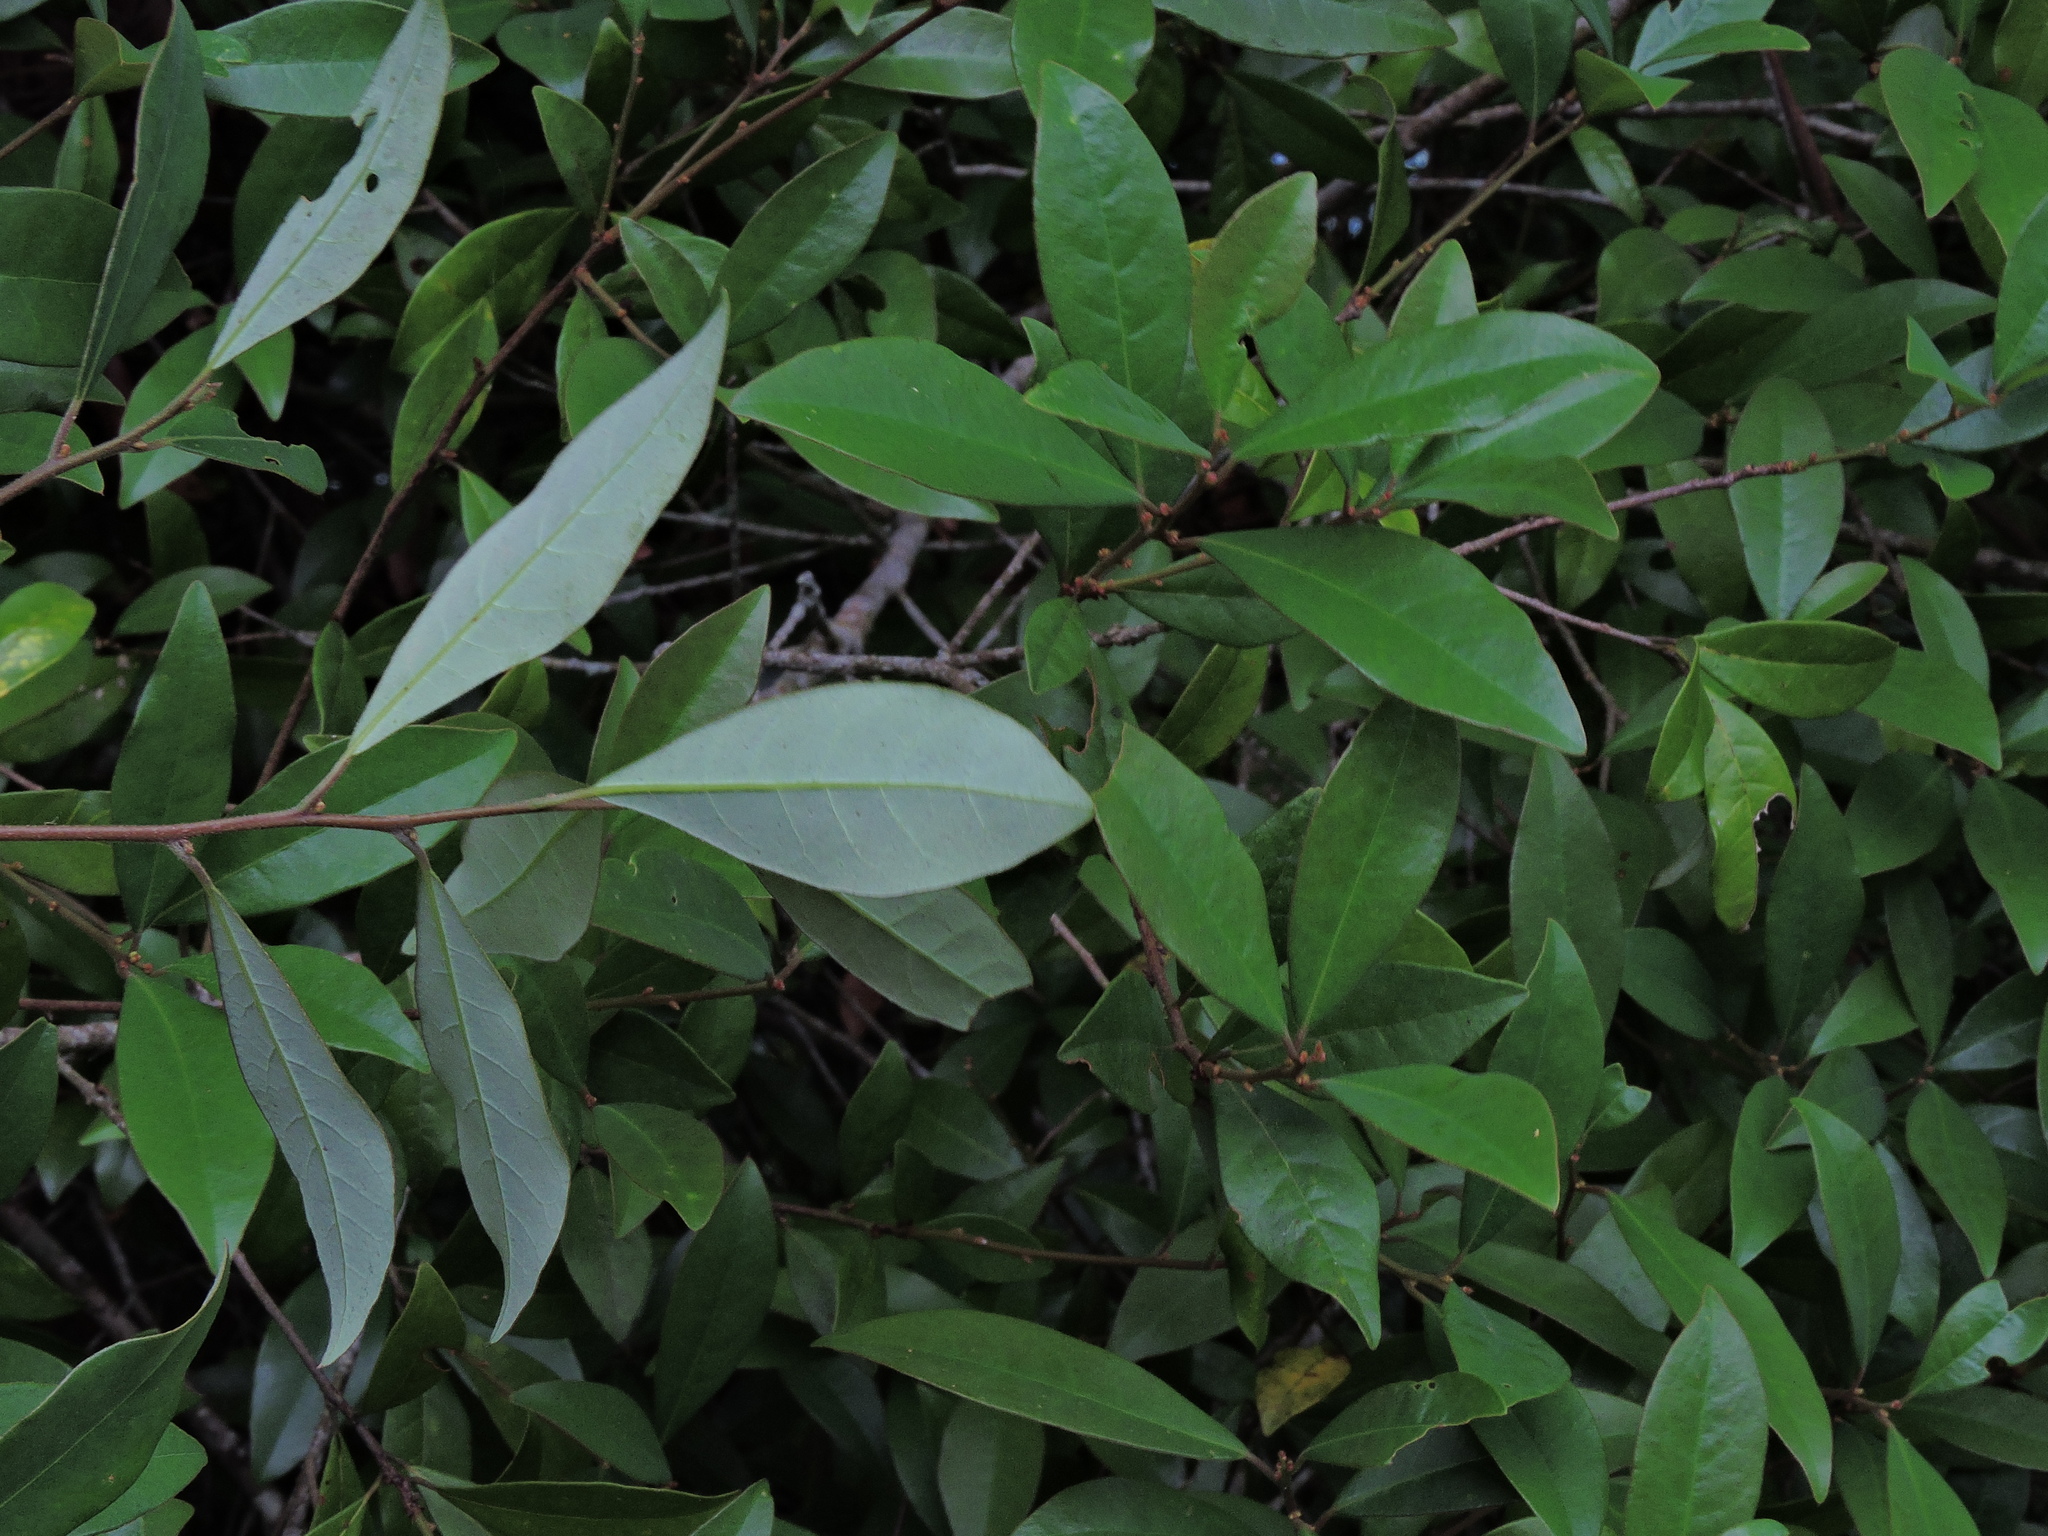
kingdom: Plantae
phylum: Tracheophyta
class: Magnoliopsida
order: Laurales
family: Lauraceae
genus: Litsea
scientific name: Litsea rotundifolia
